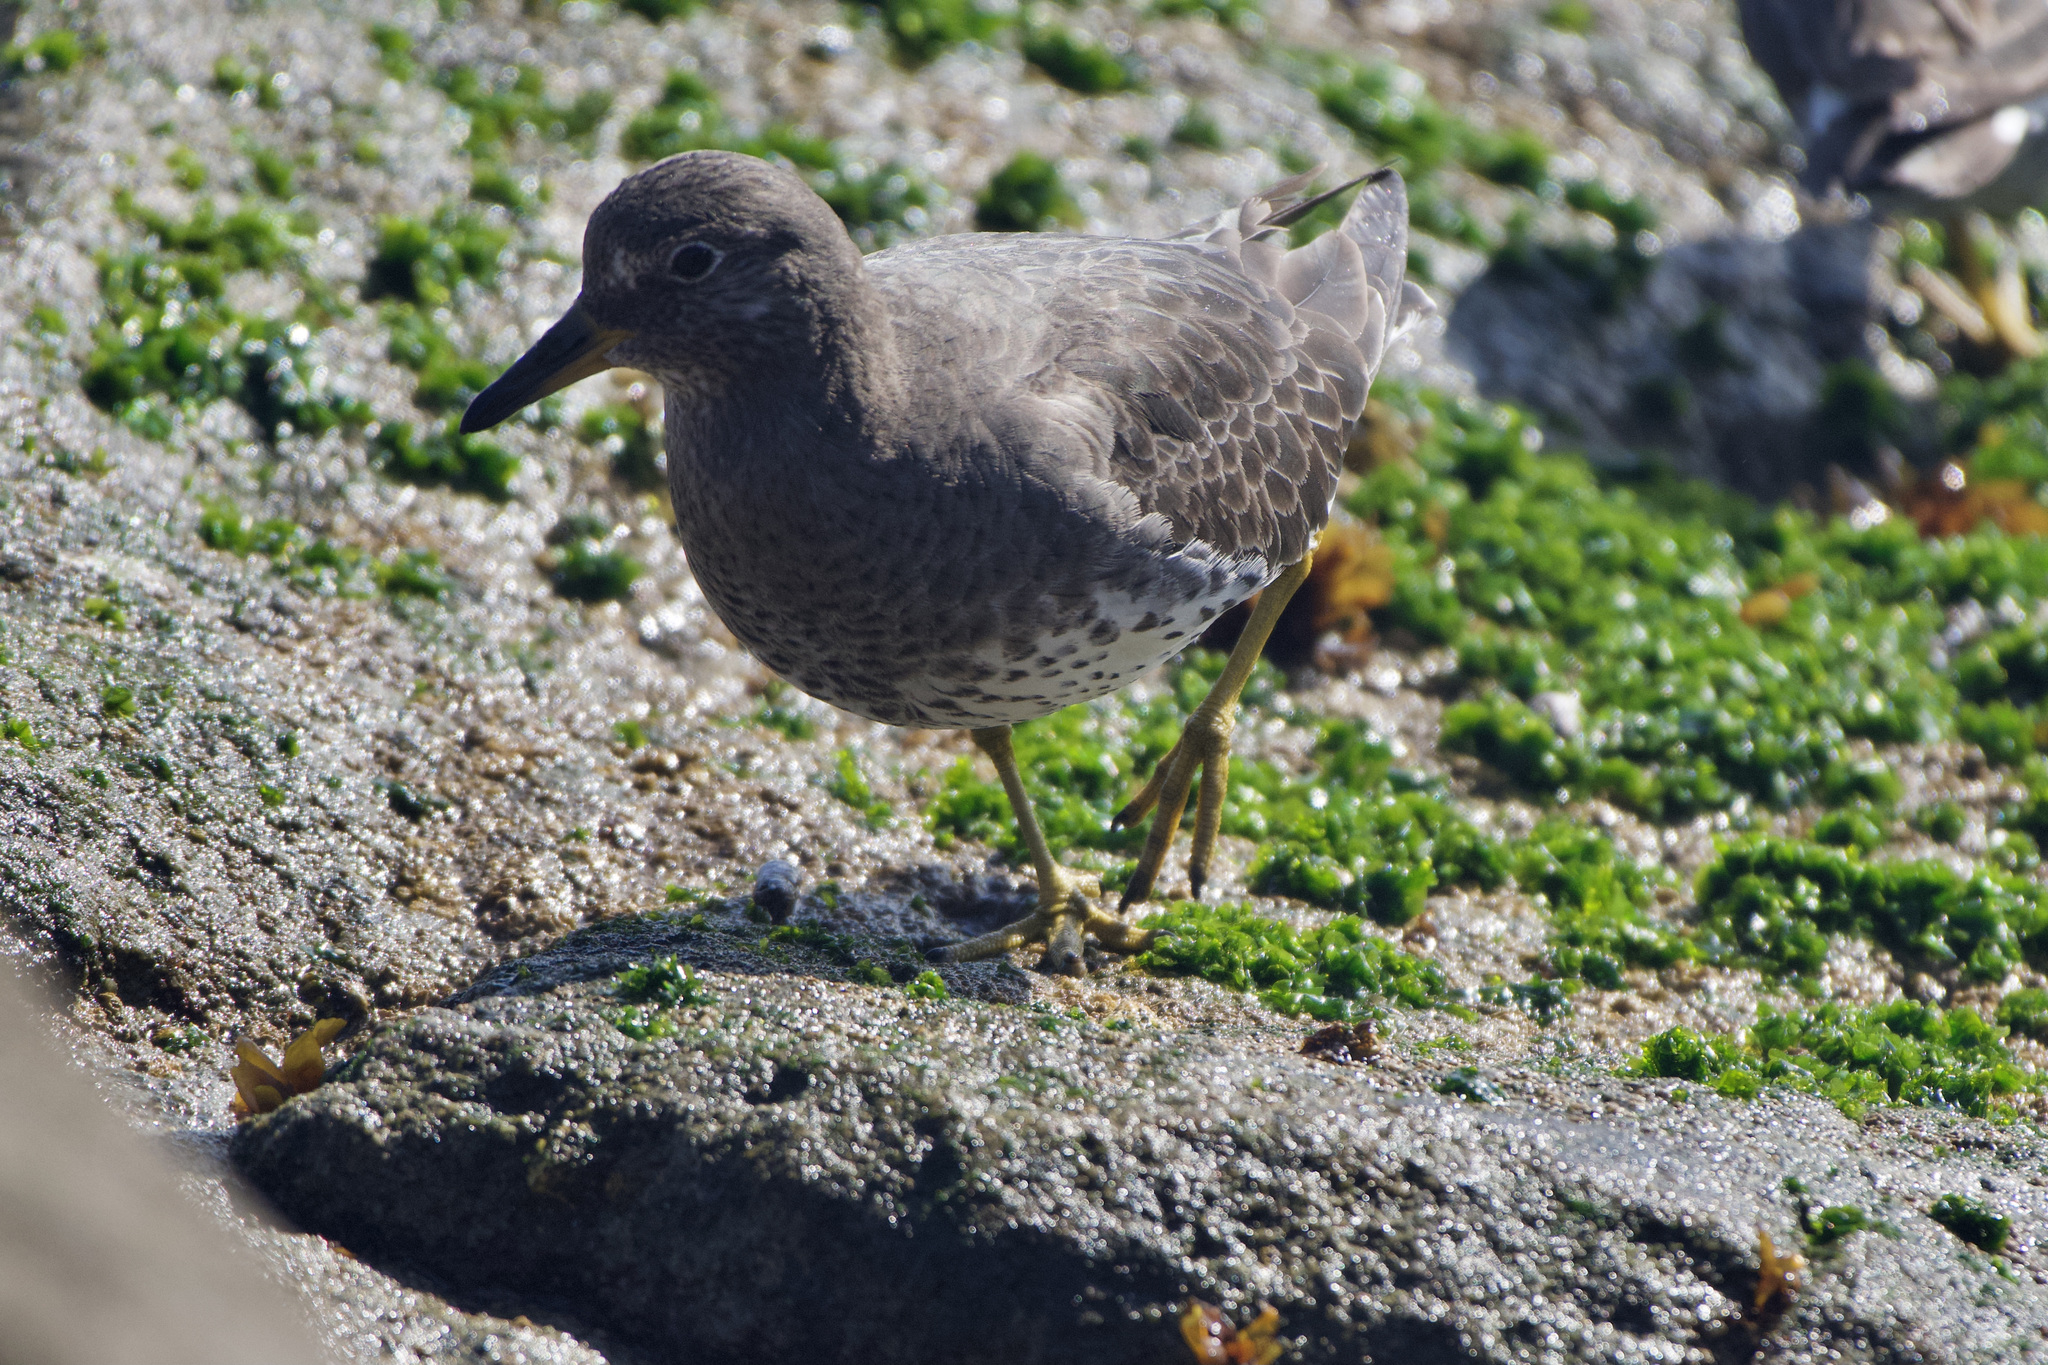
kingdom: Animalia
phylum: Chordata
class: Aves
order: Charadriiformes
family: Scolopacidae
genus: Calidris
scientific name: Calidris virgata
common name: Surfbird
